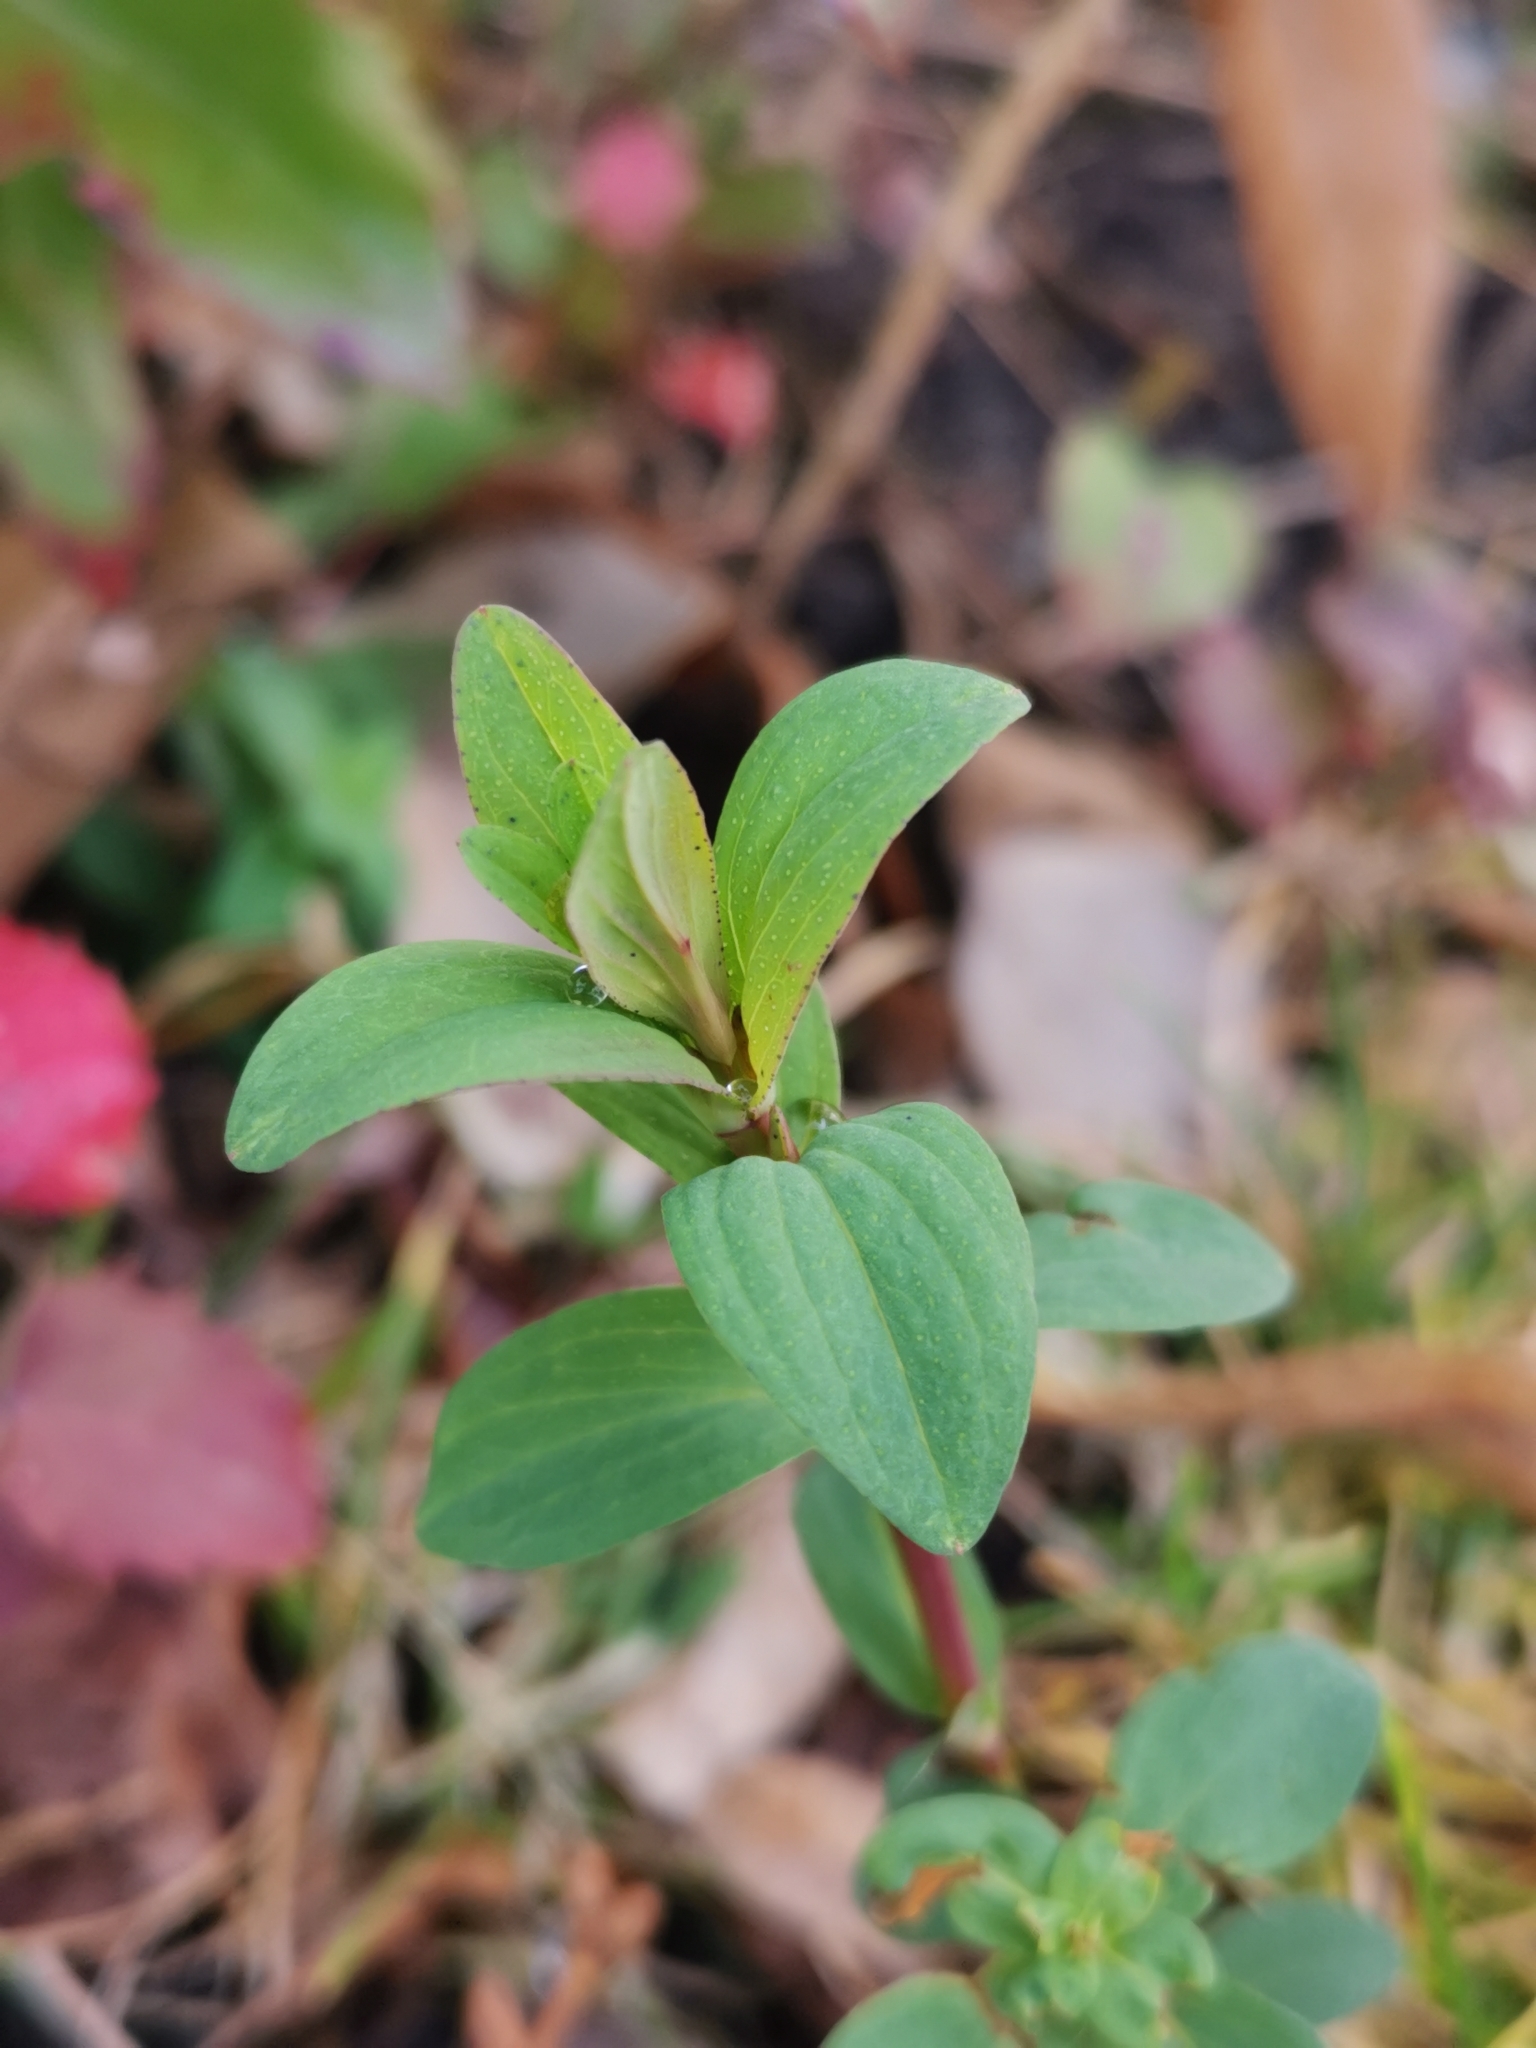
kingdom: Plantae
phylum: Tracheophyta
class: Magnoliopsida
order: Malpighiales
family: Hypericaceae
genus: Hypericum
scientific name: Hypericum perforatum
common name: Common st. johnswort
